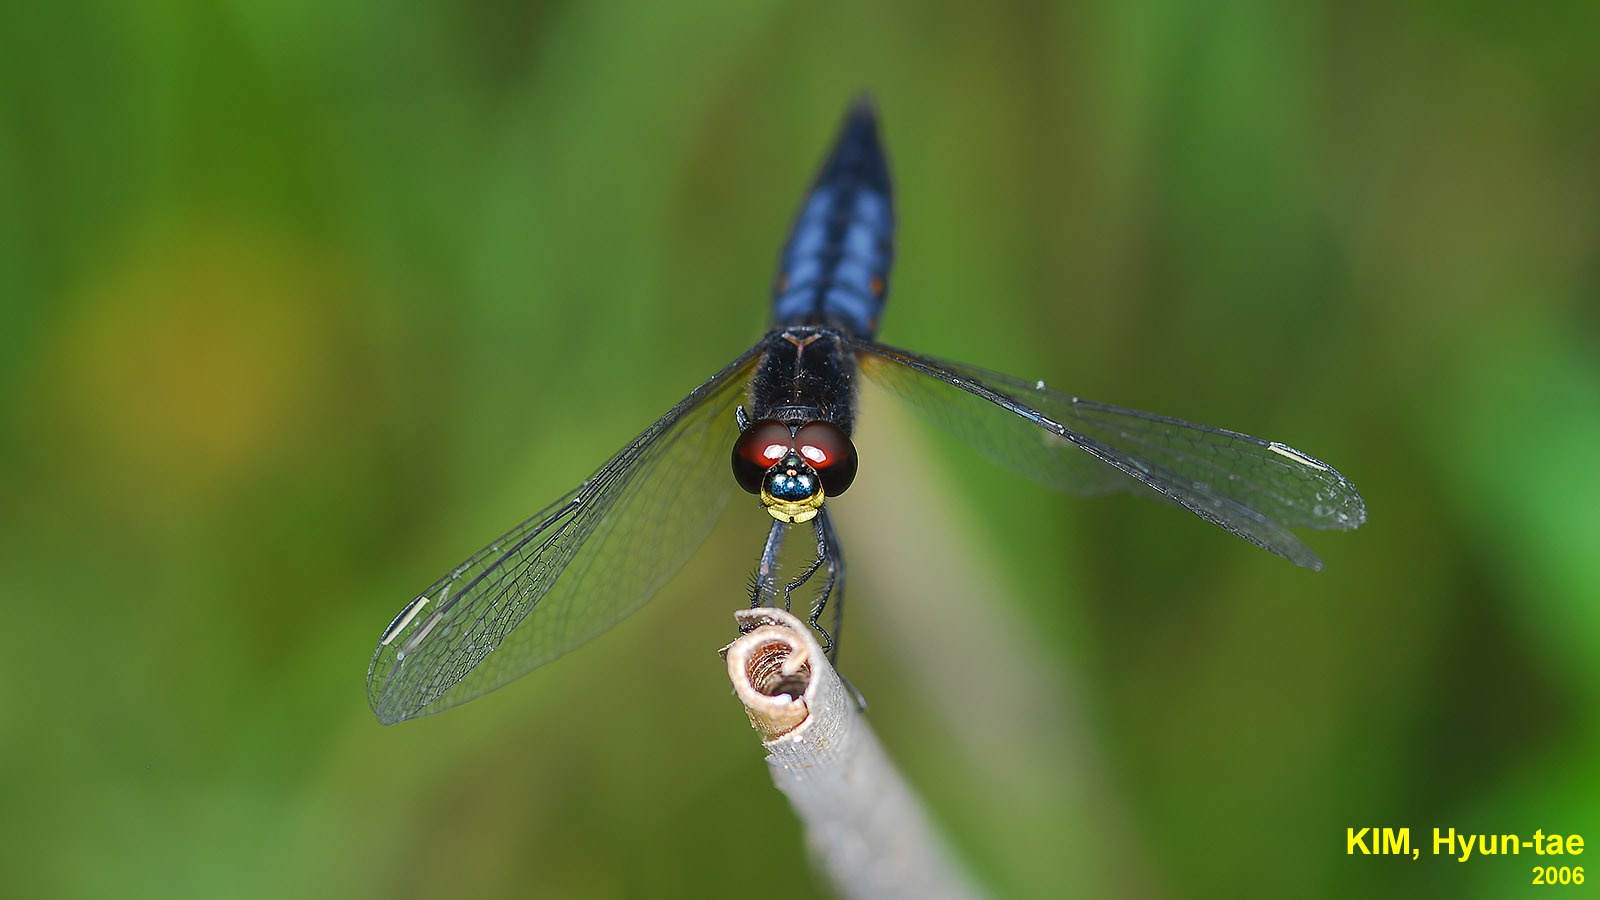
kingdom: Animalia
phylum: Arthropoda
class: Insecta
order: Odonata
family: Libellulidae
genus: Lyriothemis
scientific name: Lyriothemis pachygastra
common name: Wide-bellied skimmer
